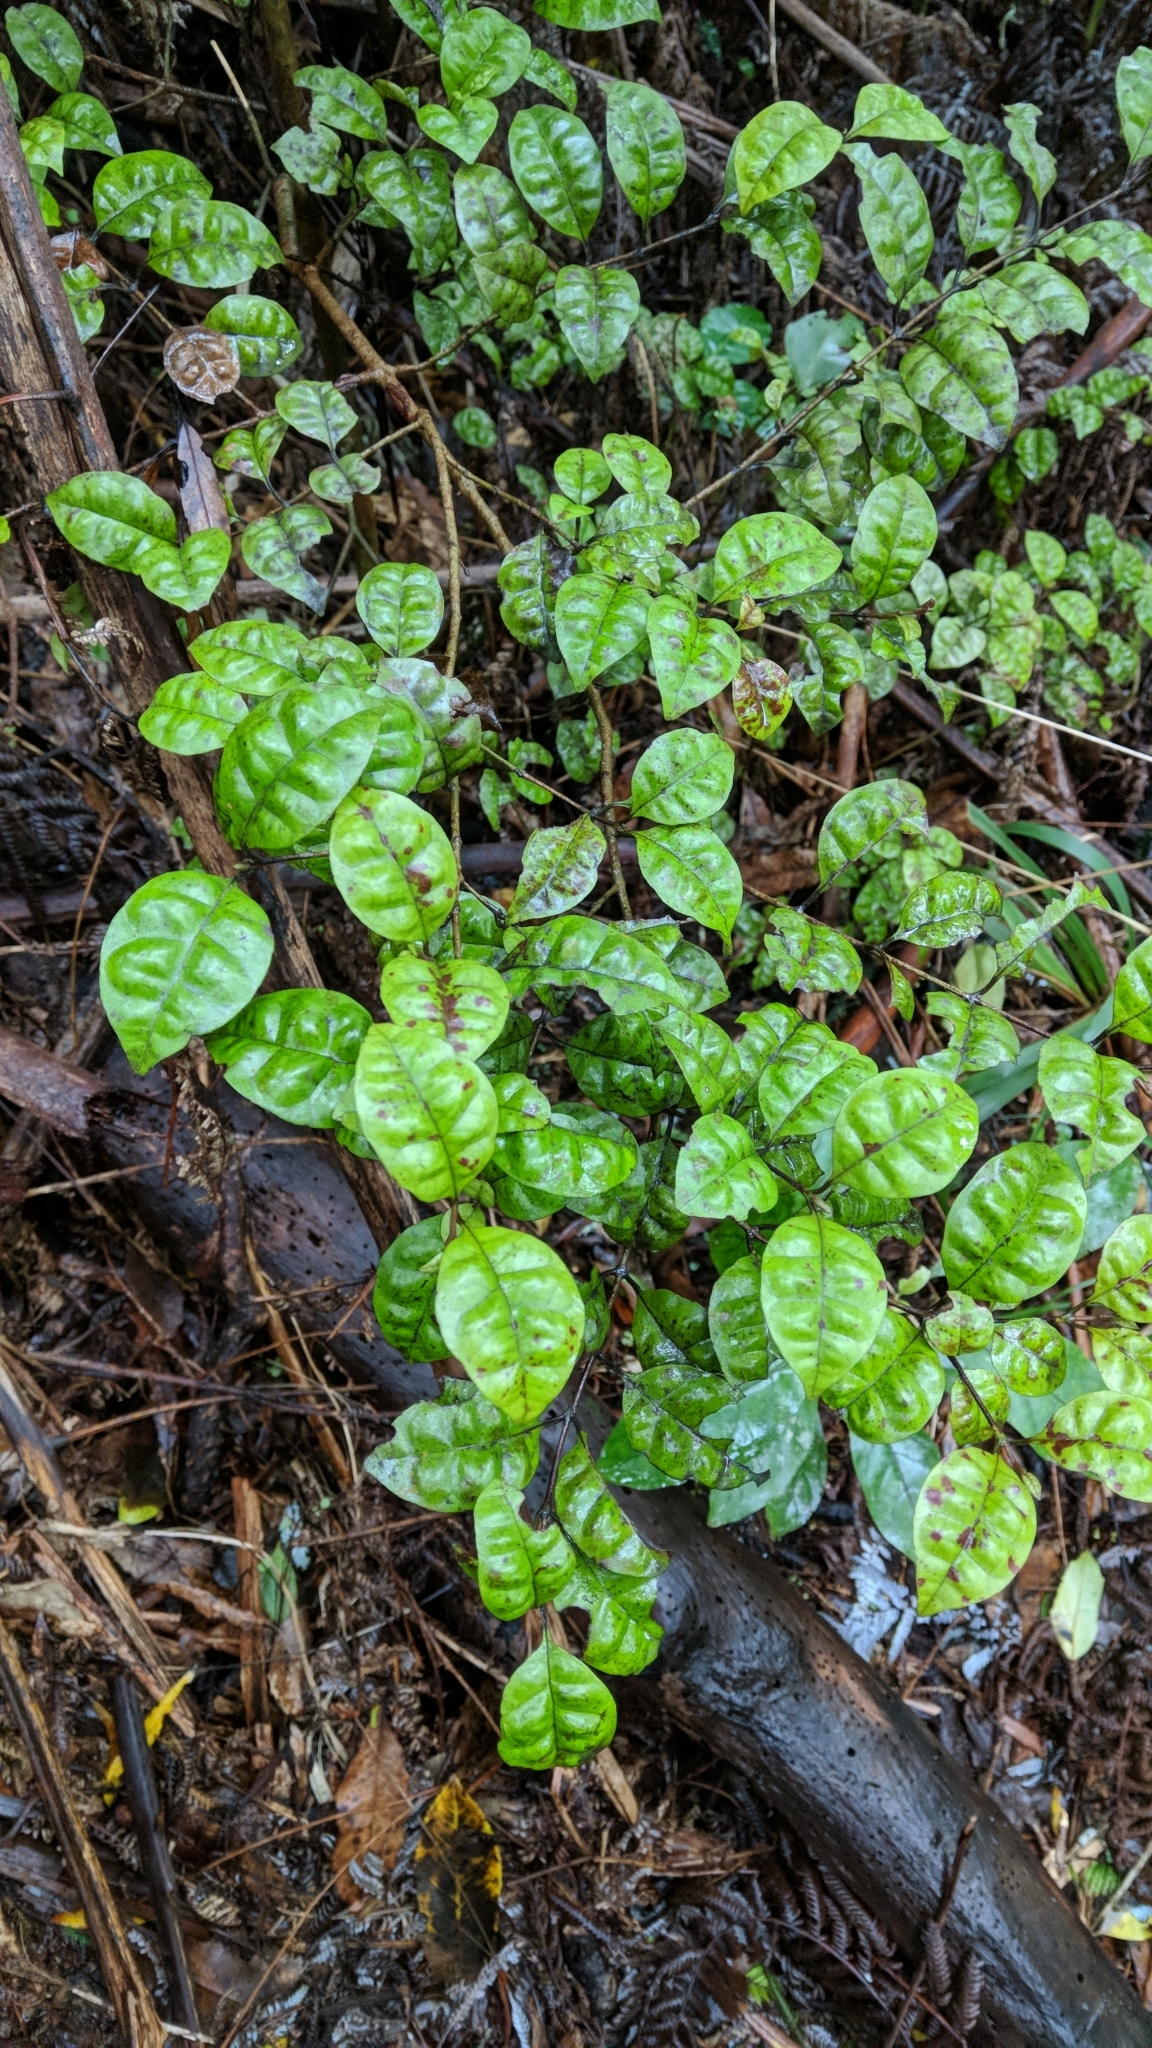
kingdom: Plantae
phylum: Tracheophyta
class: Magnoliopsida
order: Myrtales
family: Myrtaceae
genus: Lophomyrtus
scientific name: Lophomyrtus bullata
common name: Rama rama
